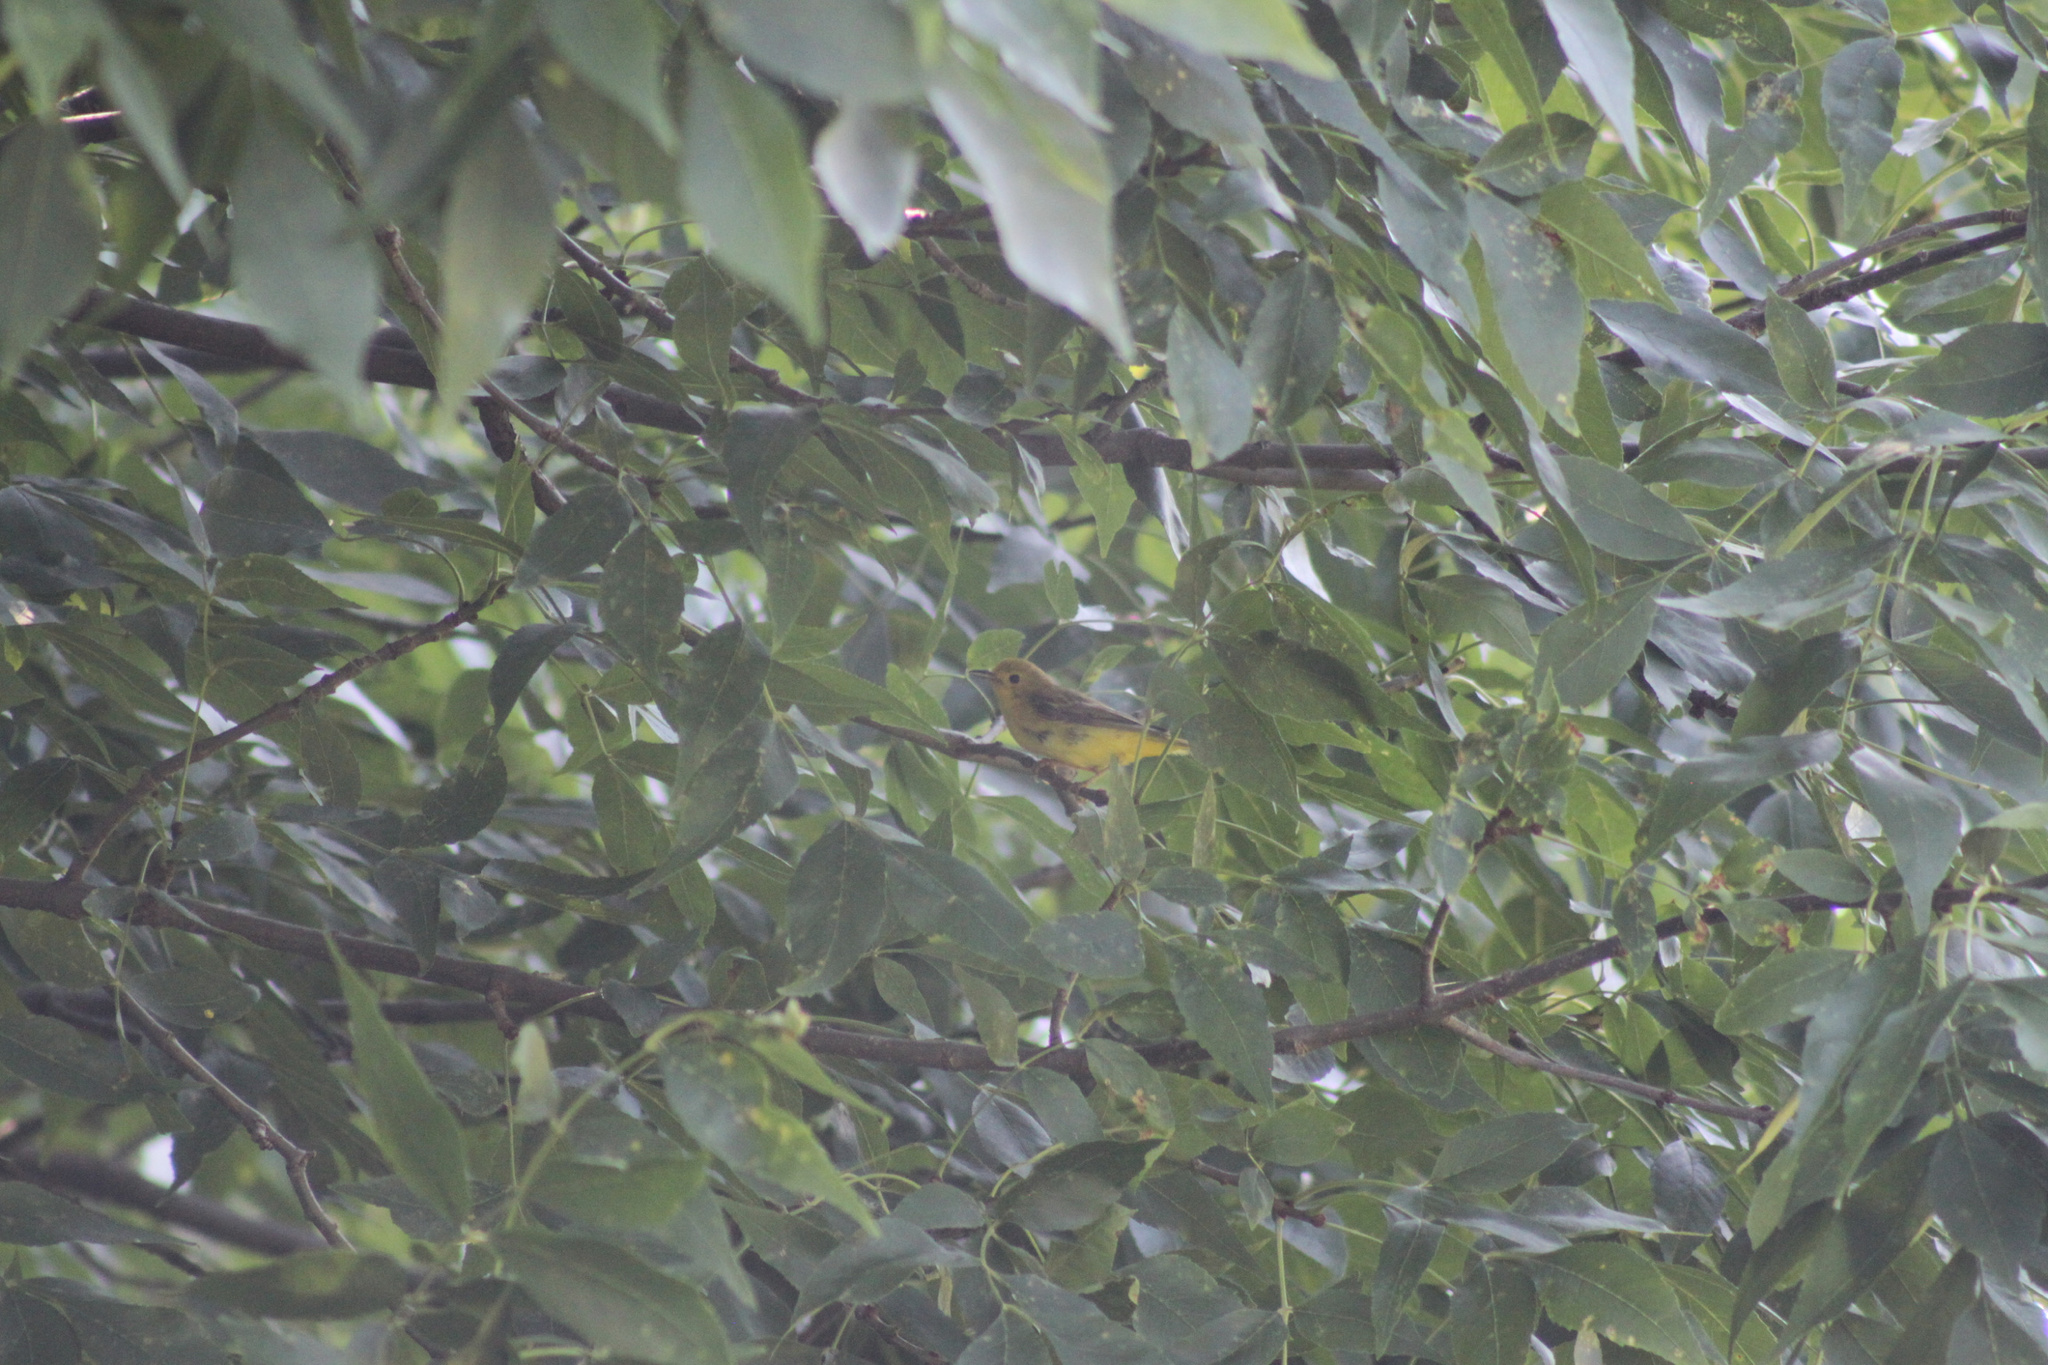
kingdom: Animalia
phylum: Chordata
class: Aves
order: Passeriformes
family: Parulidae
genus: Setophaga
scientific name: Setophaga petechia
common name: Yellow warbler
